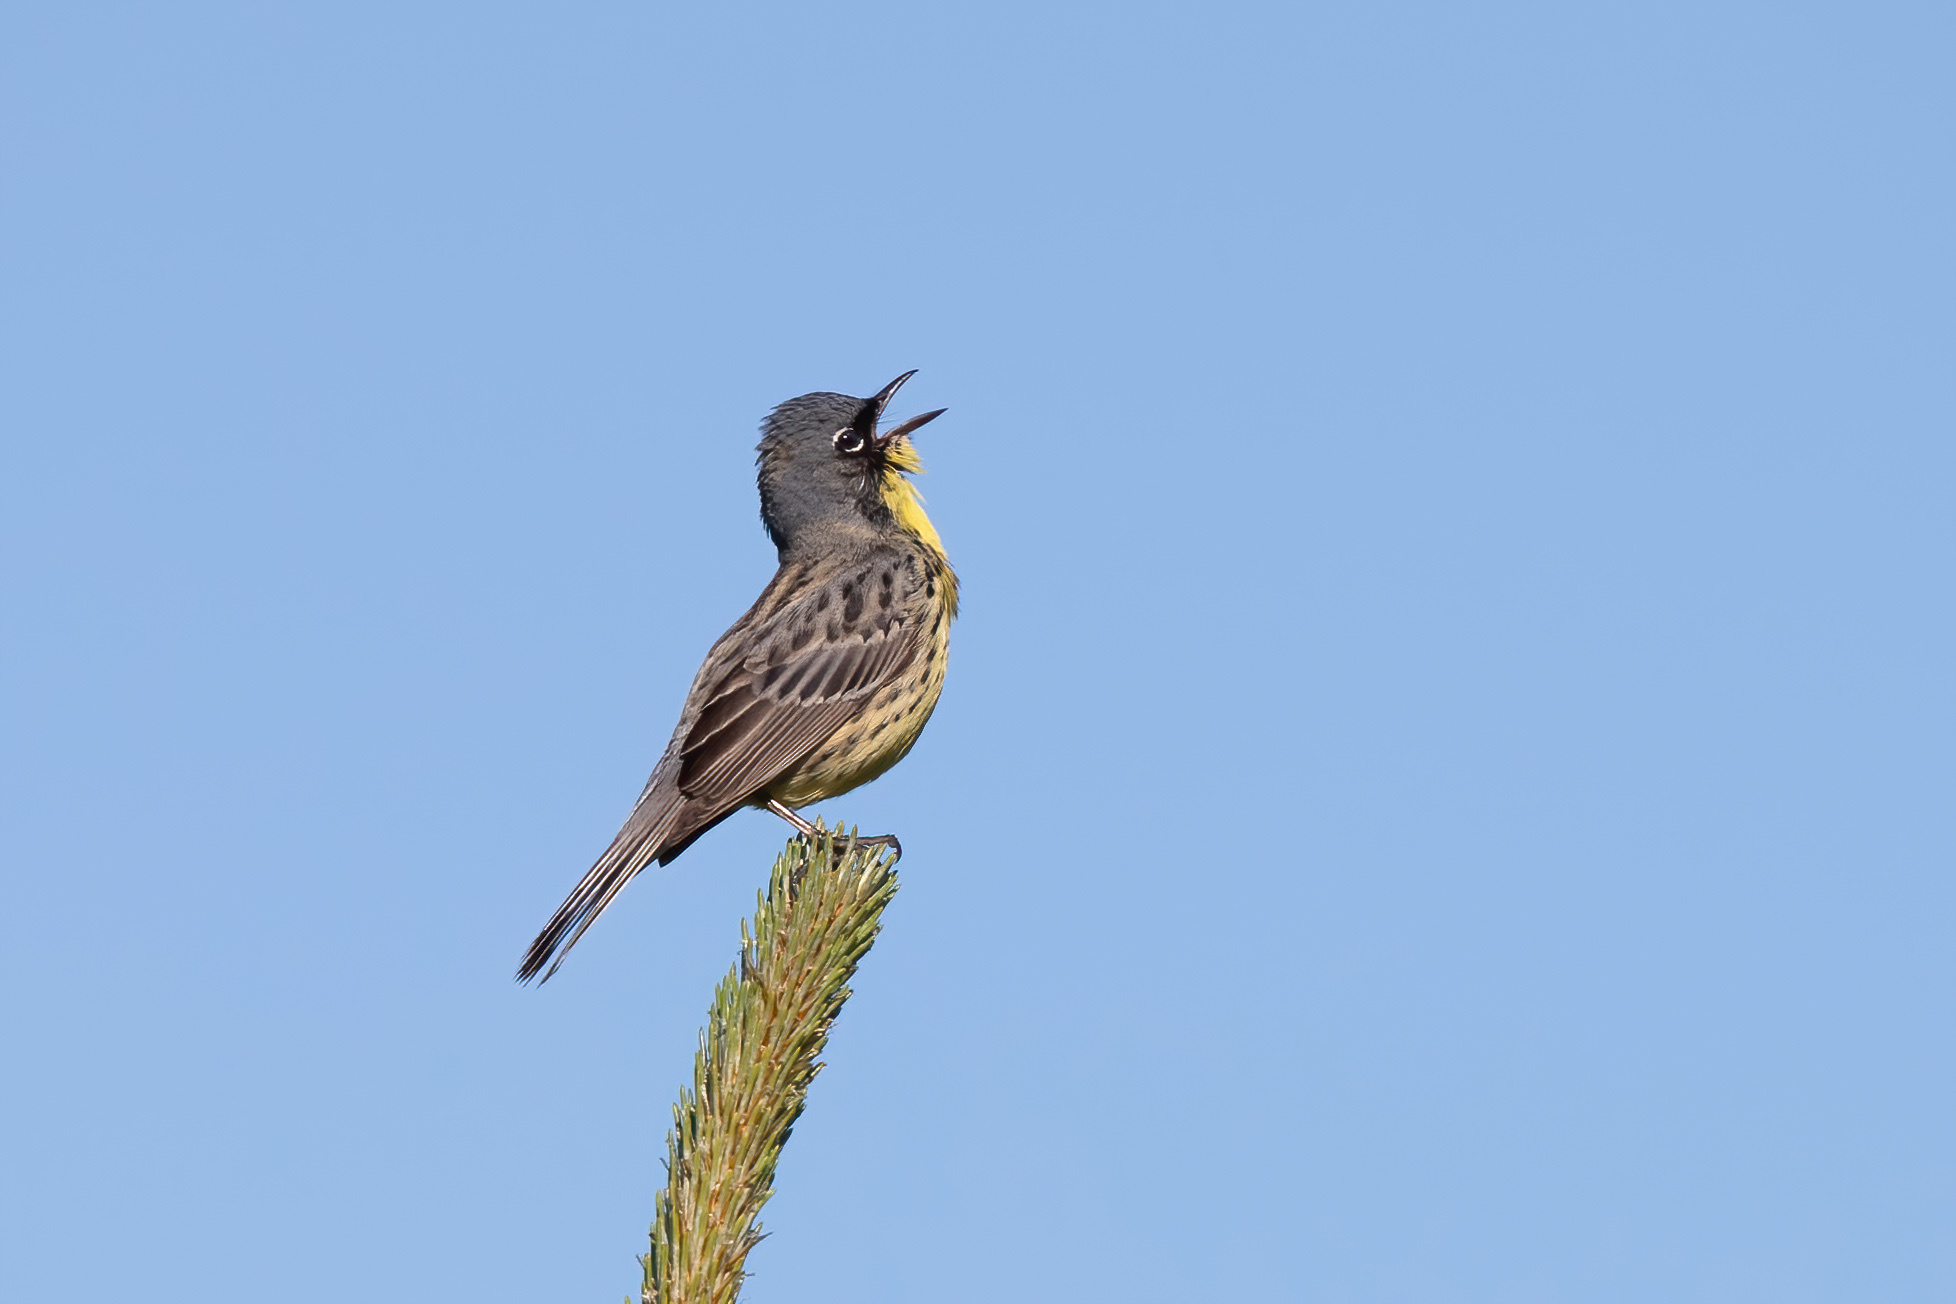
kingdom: Animalia
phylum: Chordata
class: Aves
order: Passeriformes
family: Parulidae
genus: Setophaga
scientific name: Setophaga kirtlandii
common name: Kirtland's warbler
